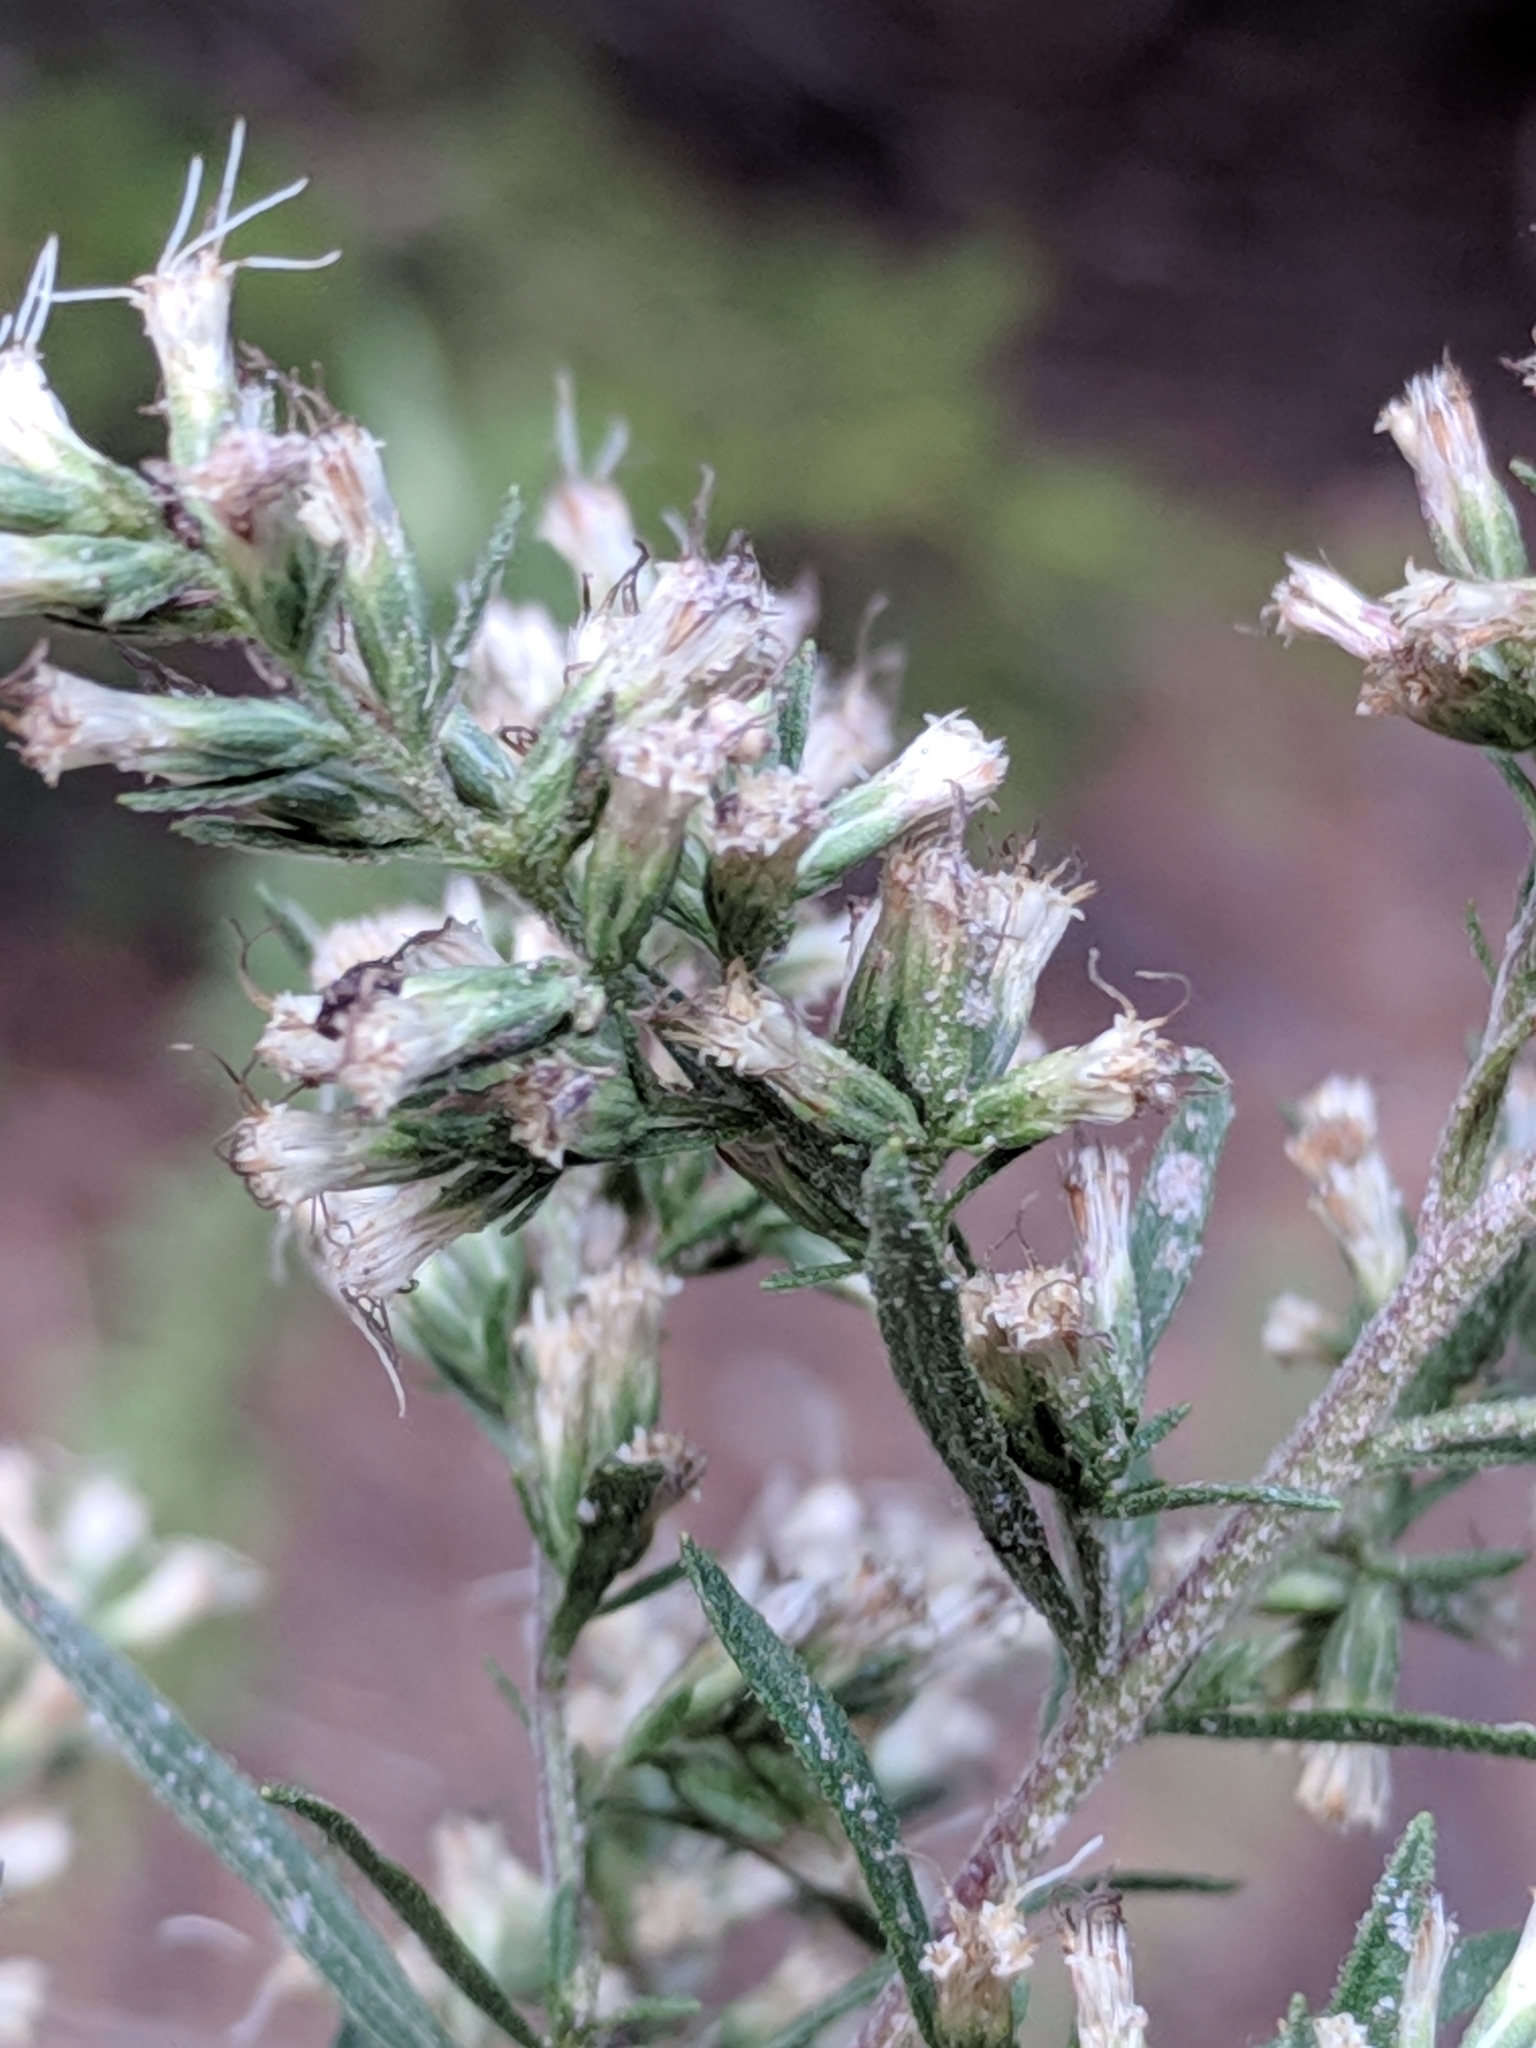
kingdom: Plantae
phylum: Tracheophyta
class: Magnoliopsida
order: Asterales
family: Asteraceae
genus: Eupatorium
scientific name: Eupatorium compositifolium
